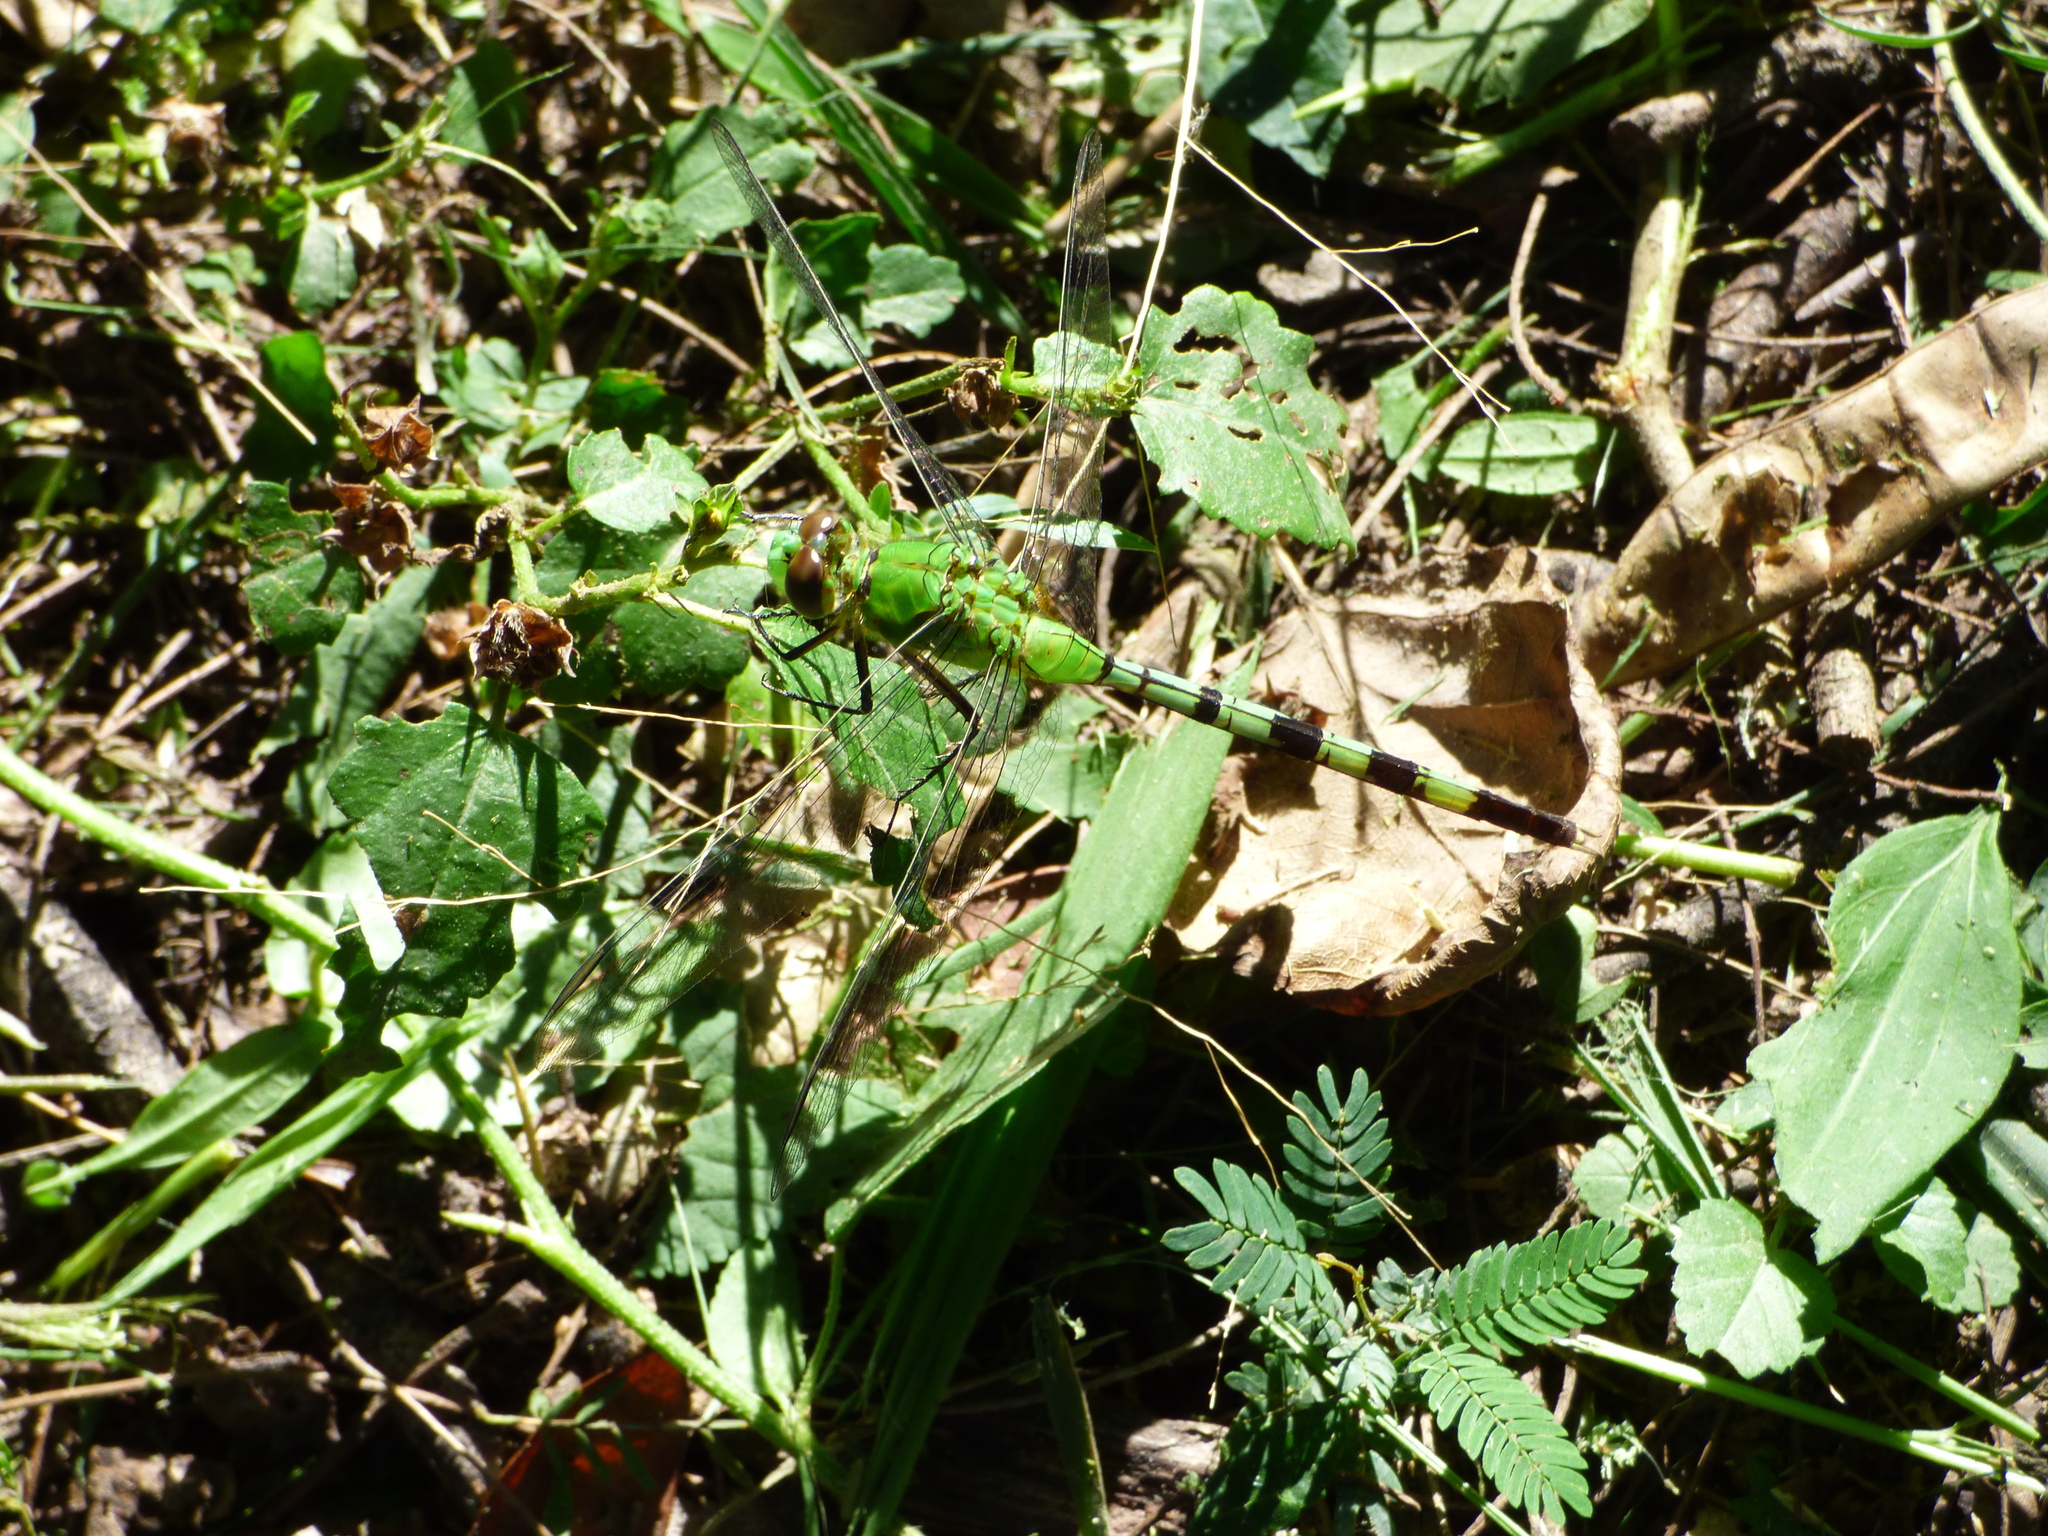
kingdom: Animalia
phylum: Arthropoda
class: Insecta
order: Odonata
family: Libellulidae
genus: Erythemis
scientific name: Erythemis vesiculosa
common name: Great pondhawk
